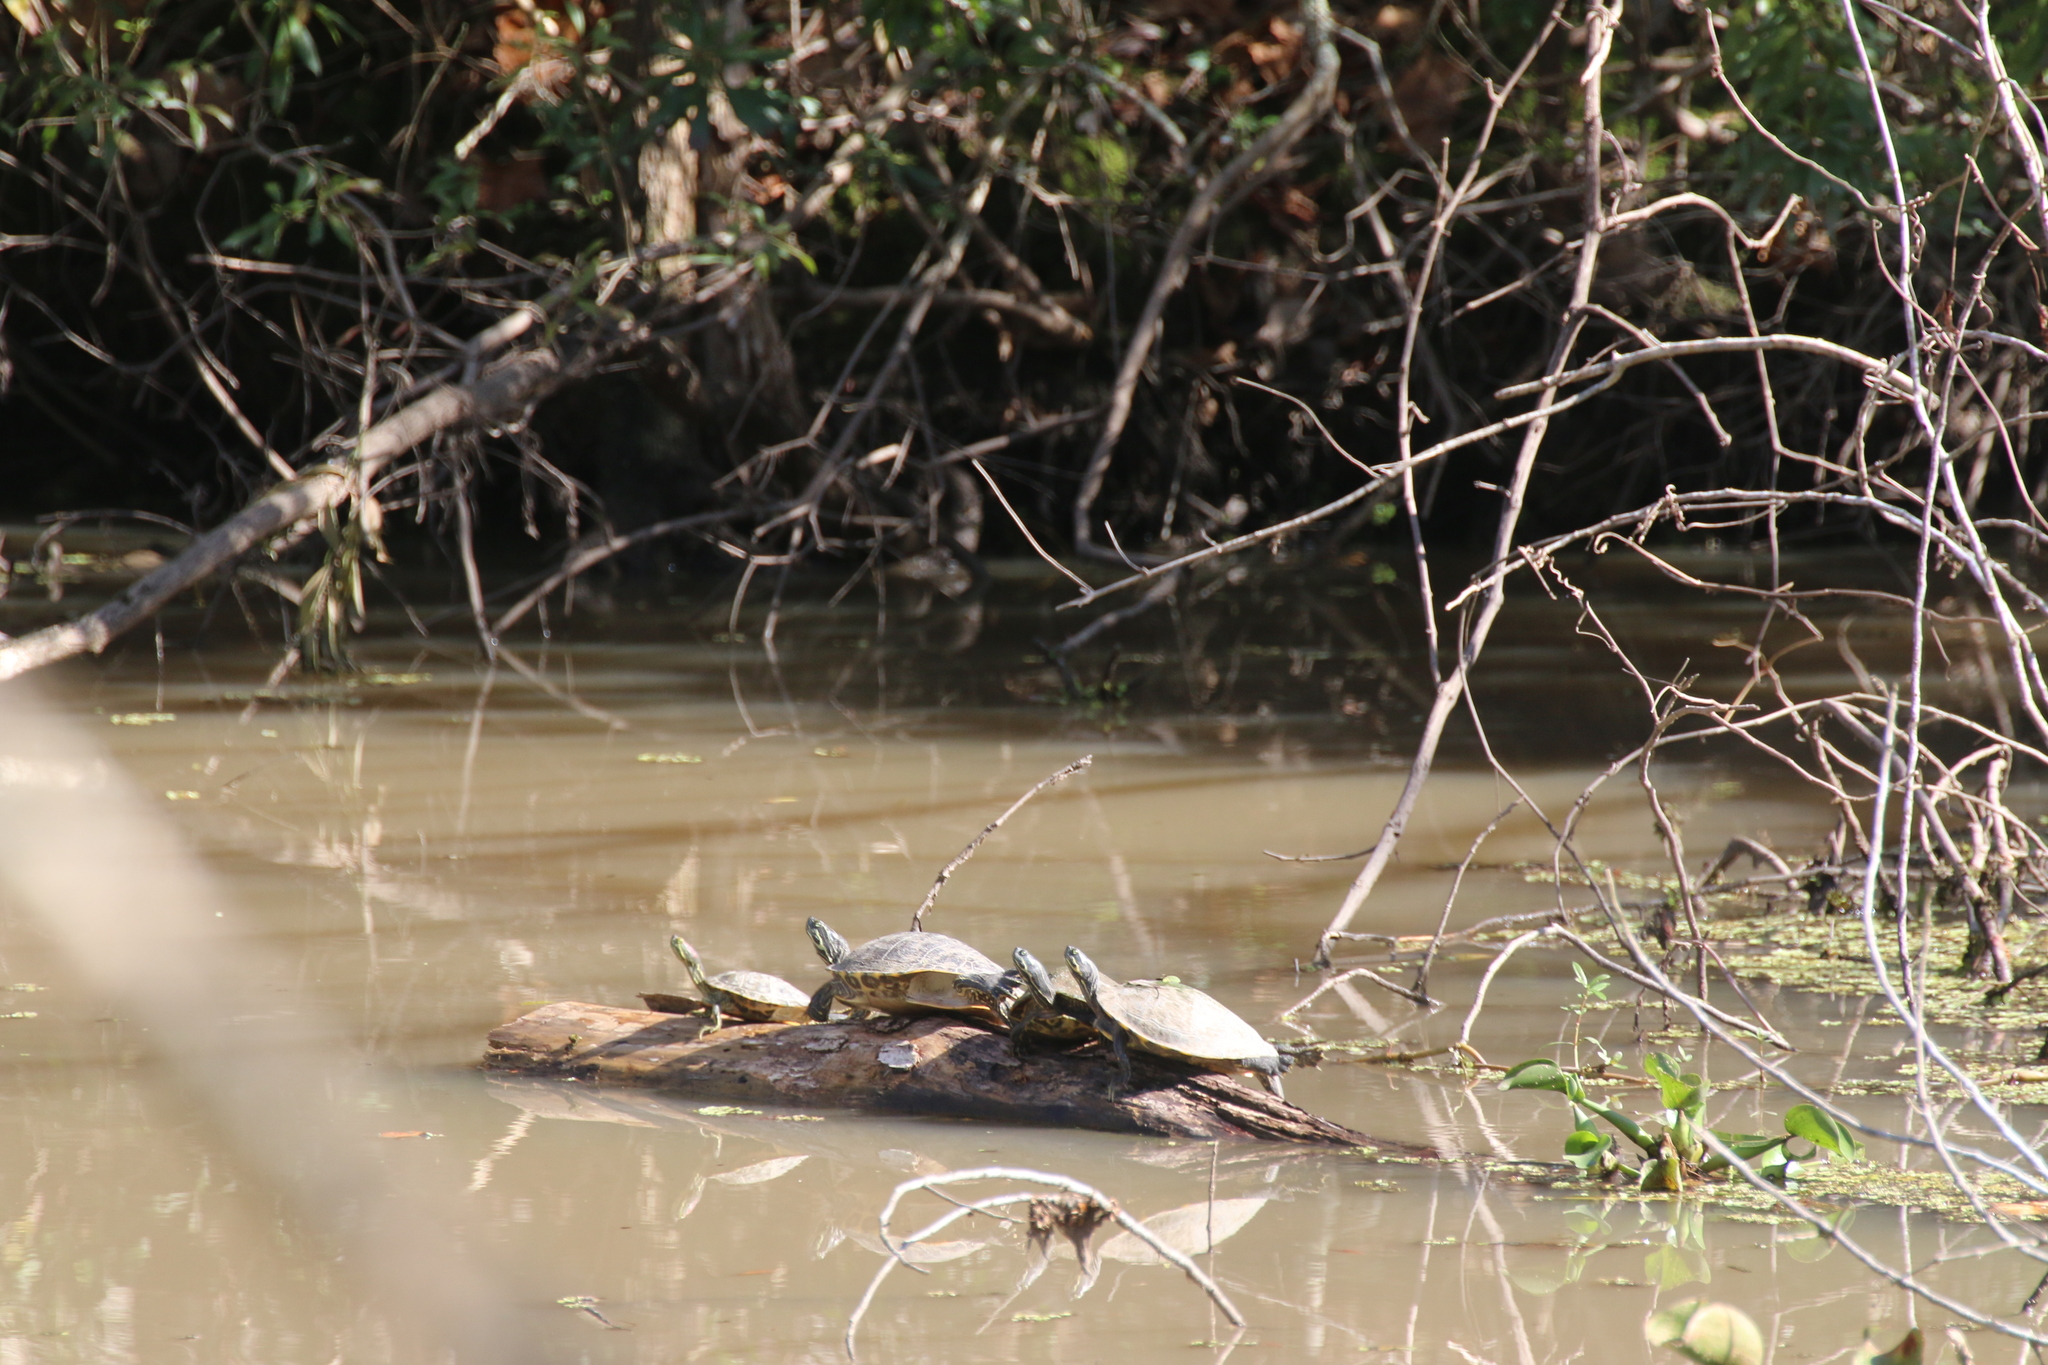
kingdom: Animalia
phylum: Chordata
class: Testudines
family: Emydidae
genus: Trachemys
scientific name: Trachemys scripta
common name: Slider
